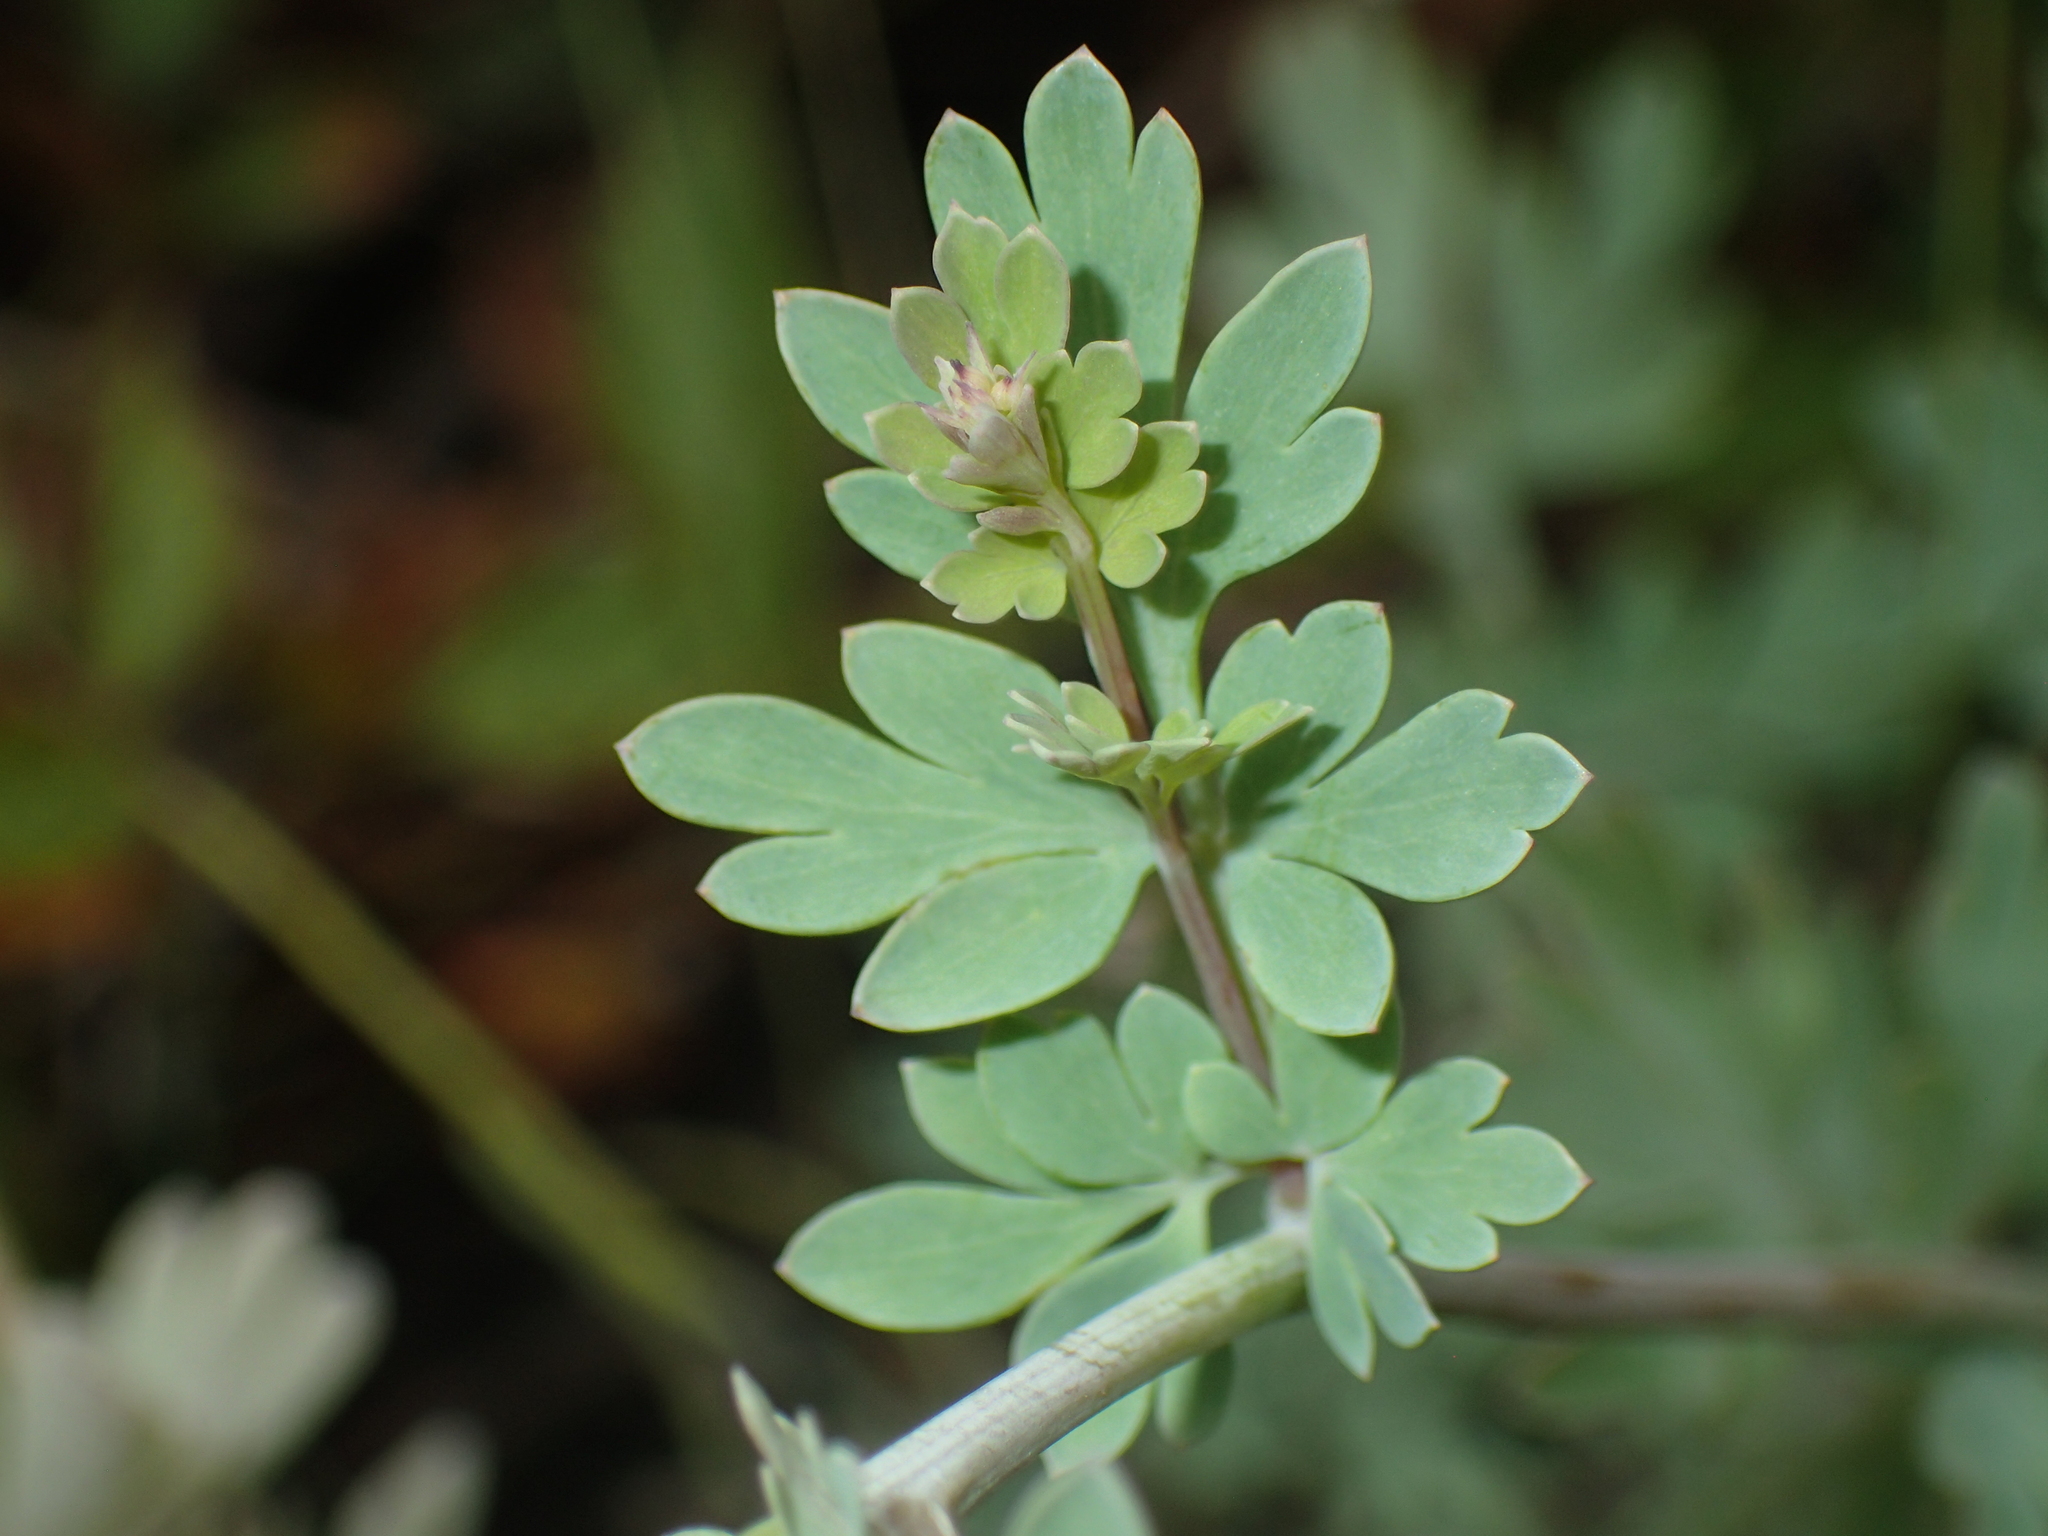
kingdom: Plantae
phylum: Tracheophyta
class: Magnoliopsida
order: Ranunculales
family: Papaveraceae
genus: Capnoides
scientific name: Capnoides sempervirens
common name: Rock harlequin
